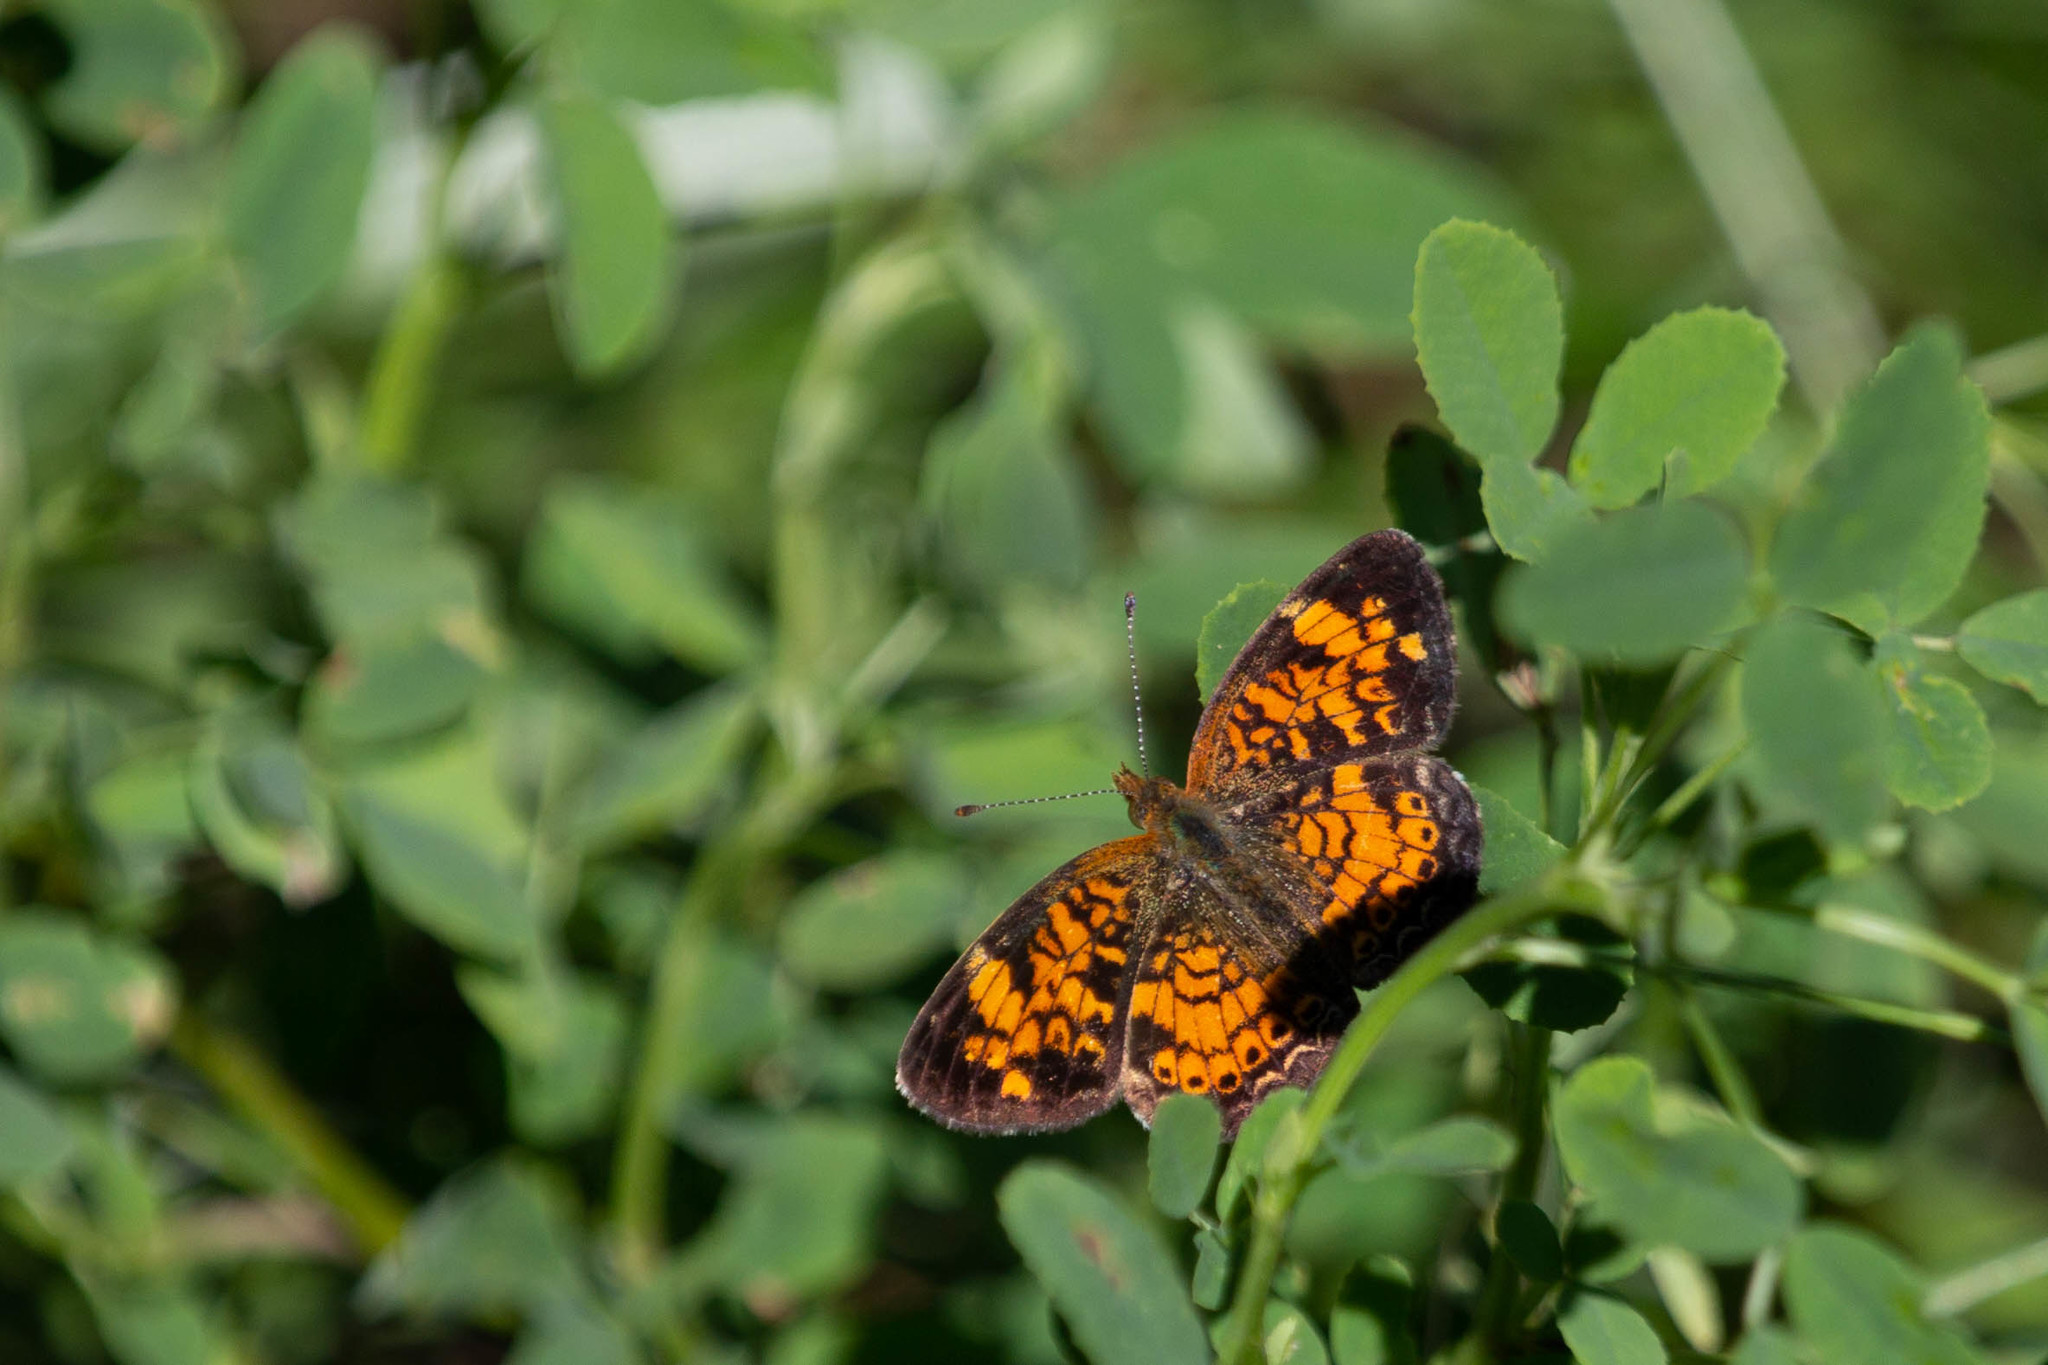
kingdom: Animalia
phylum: Arthropoda
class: Insecta
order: Lepidoptera
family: Nymphalidae
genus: Phyciodes
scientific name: Phyciodes tharos
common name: Pearl crescent
